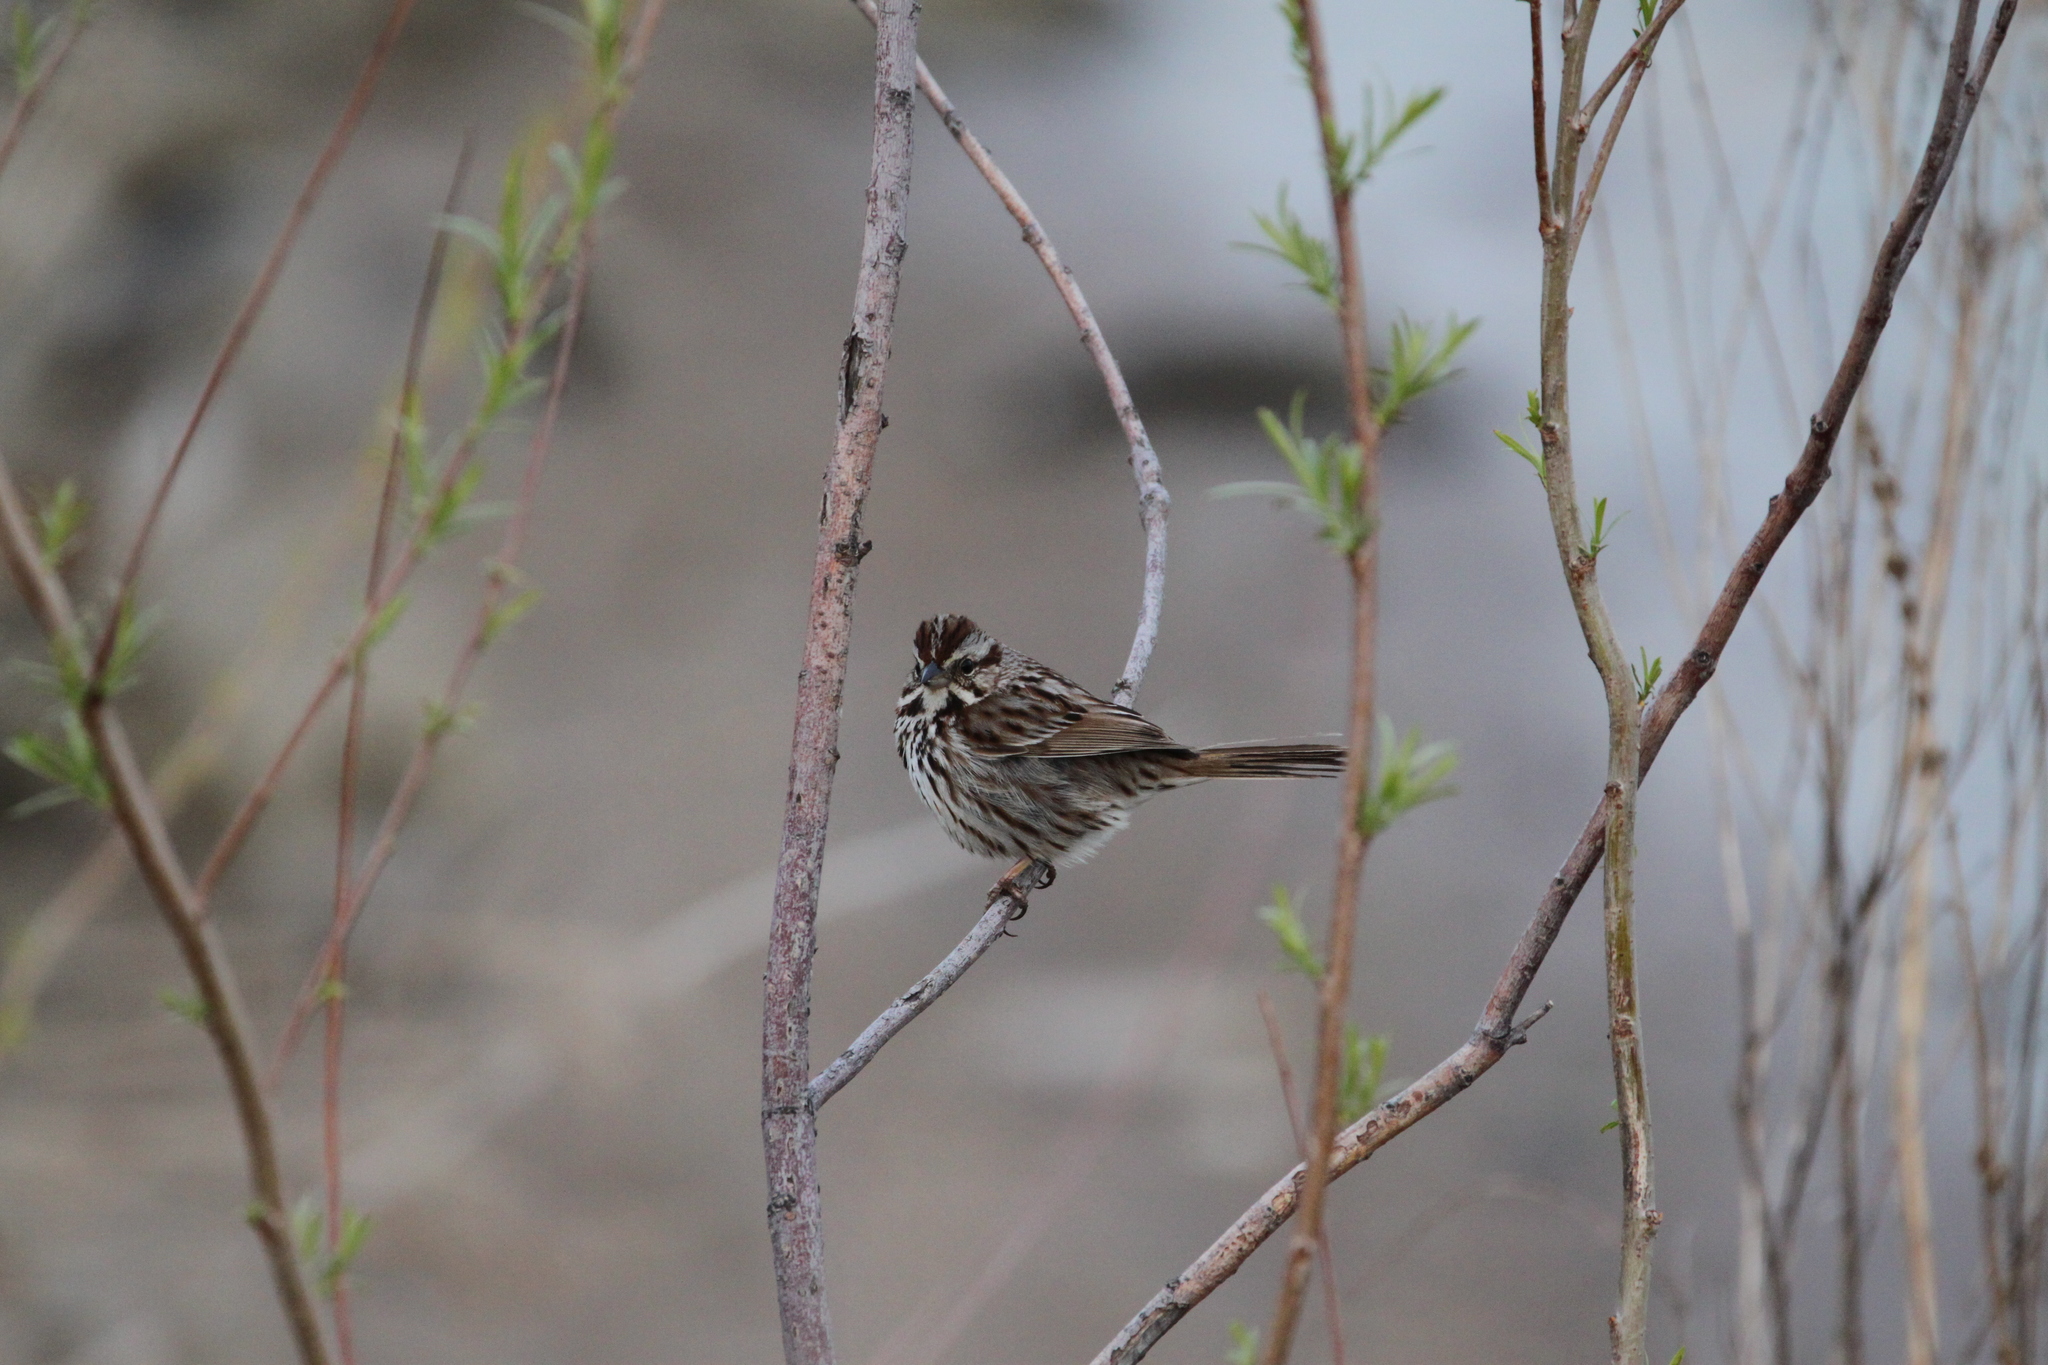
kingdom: Animalia
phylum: Chordata
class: Aves
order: Passeriformes
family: Passerellidae
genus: Melospiza
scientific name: Melospiza melodia
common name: Song sparrow
